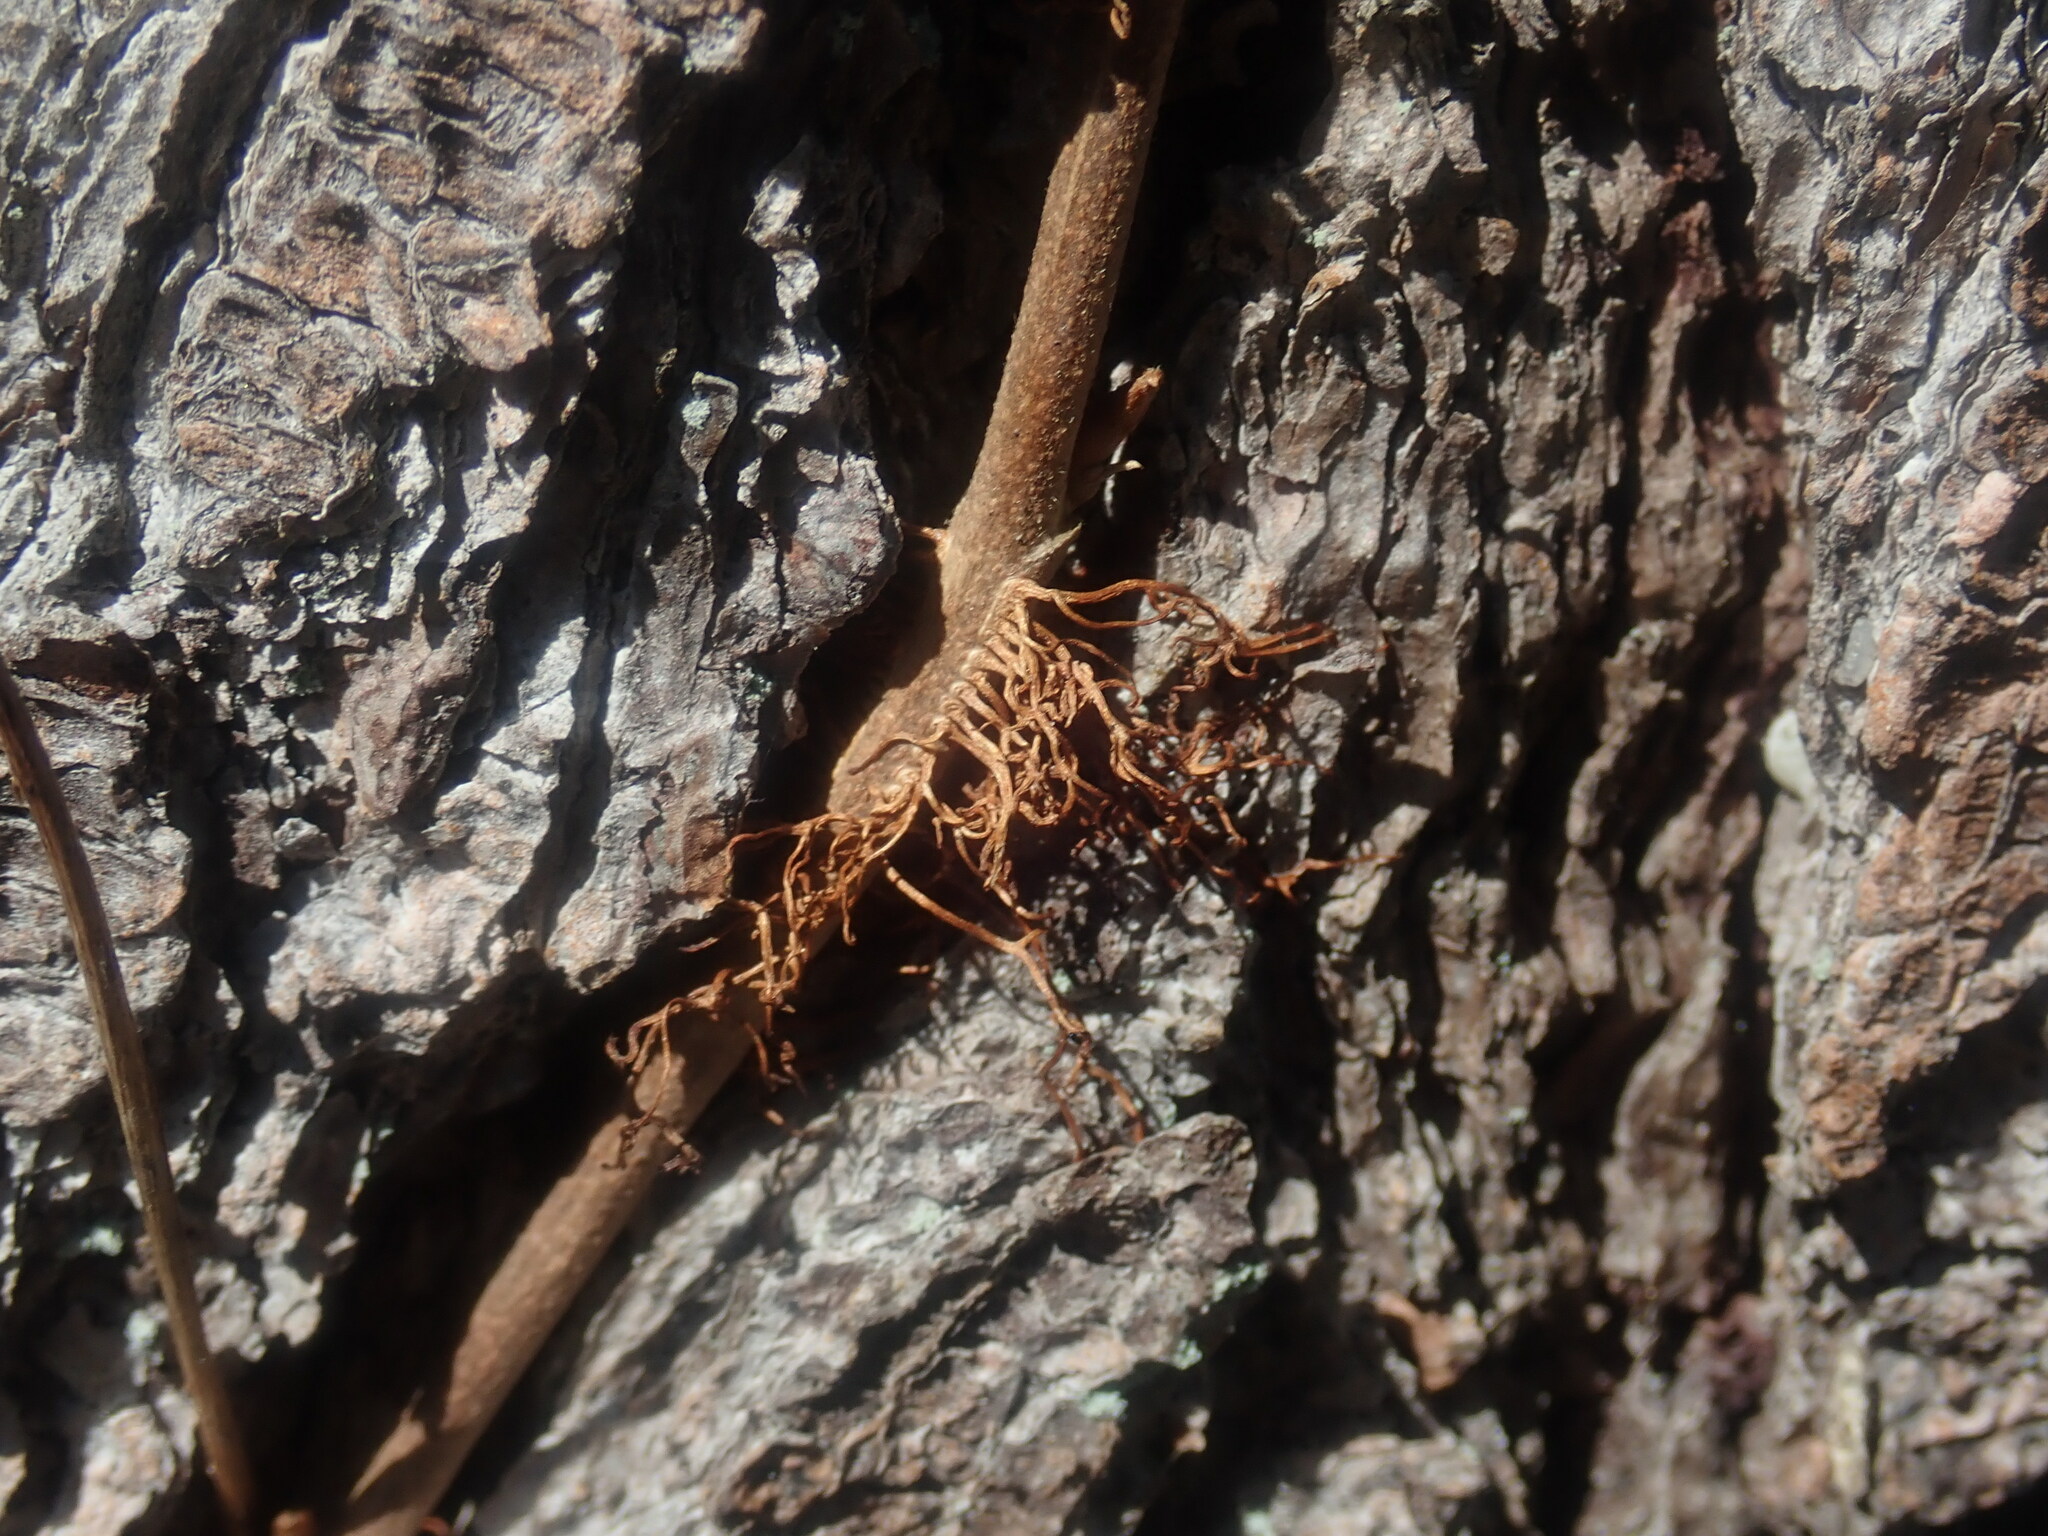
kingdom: Plantae
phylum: Tracheophyta
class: Magnoliopsida
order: Sapindales
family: Anacardiaceae
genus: Toxicodendron
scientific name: Toxicodendron radicans
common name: Poison ivy
